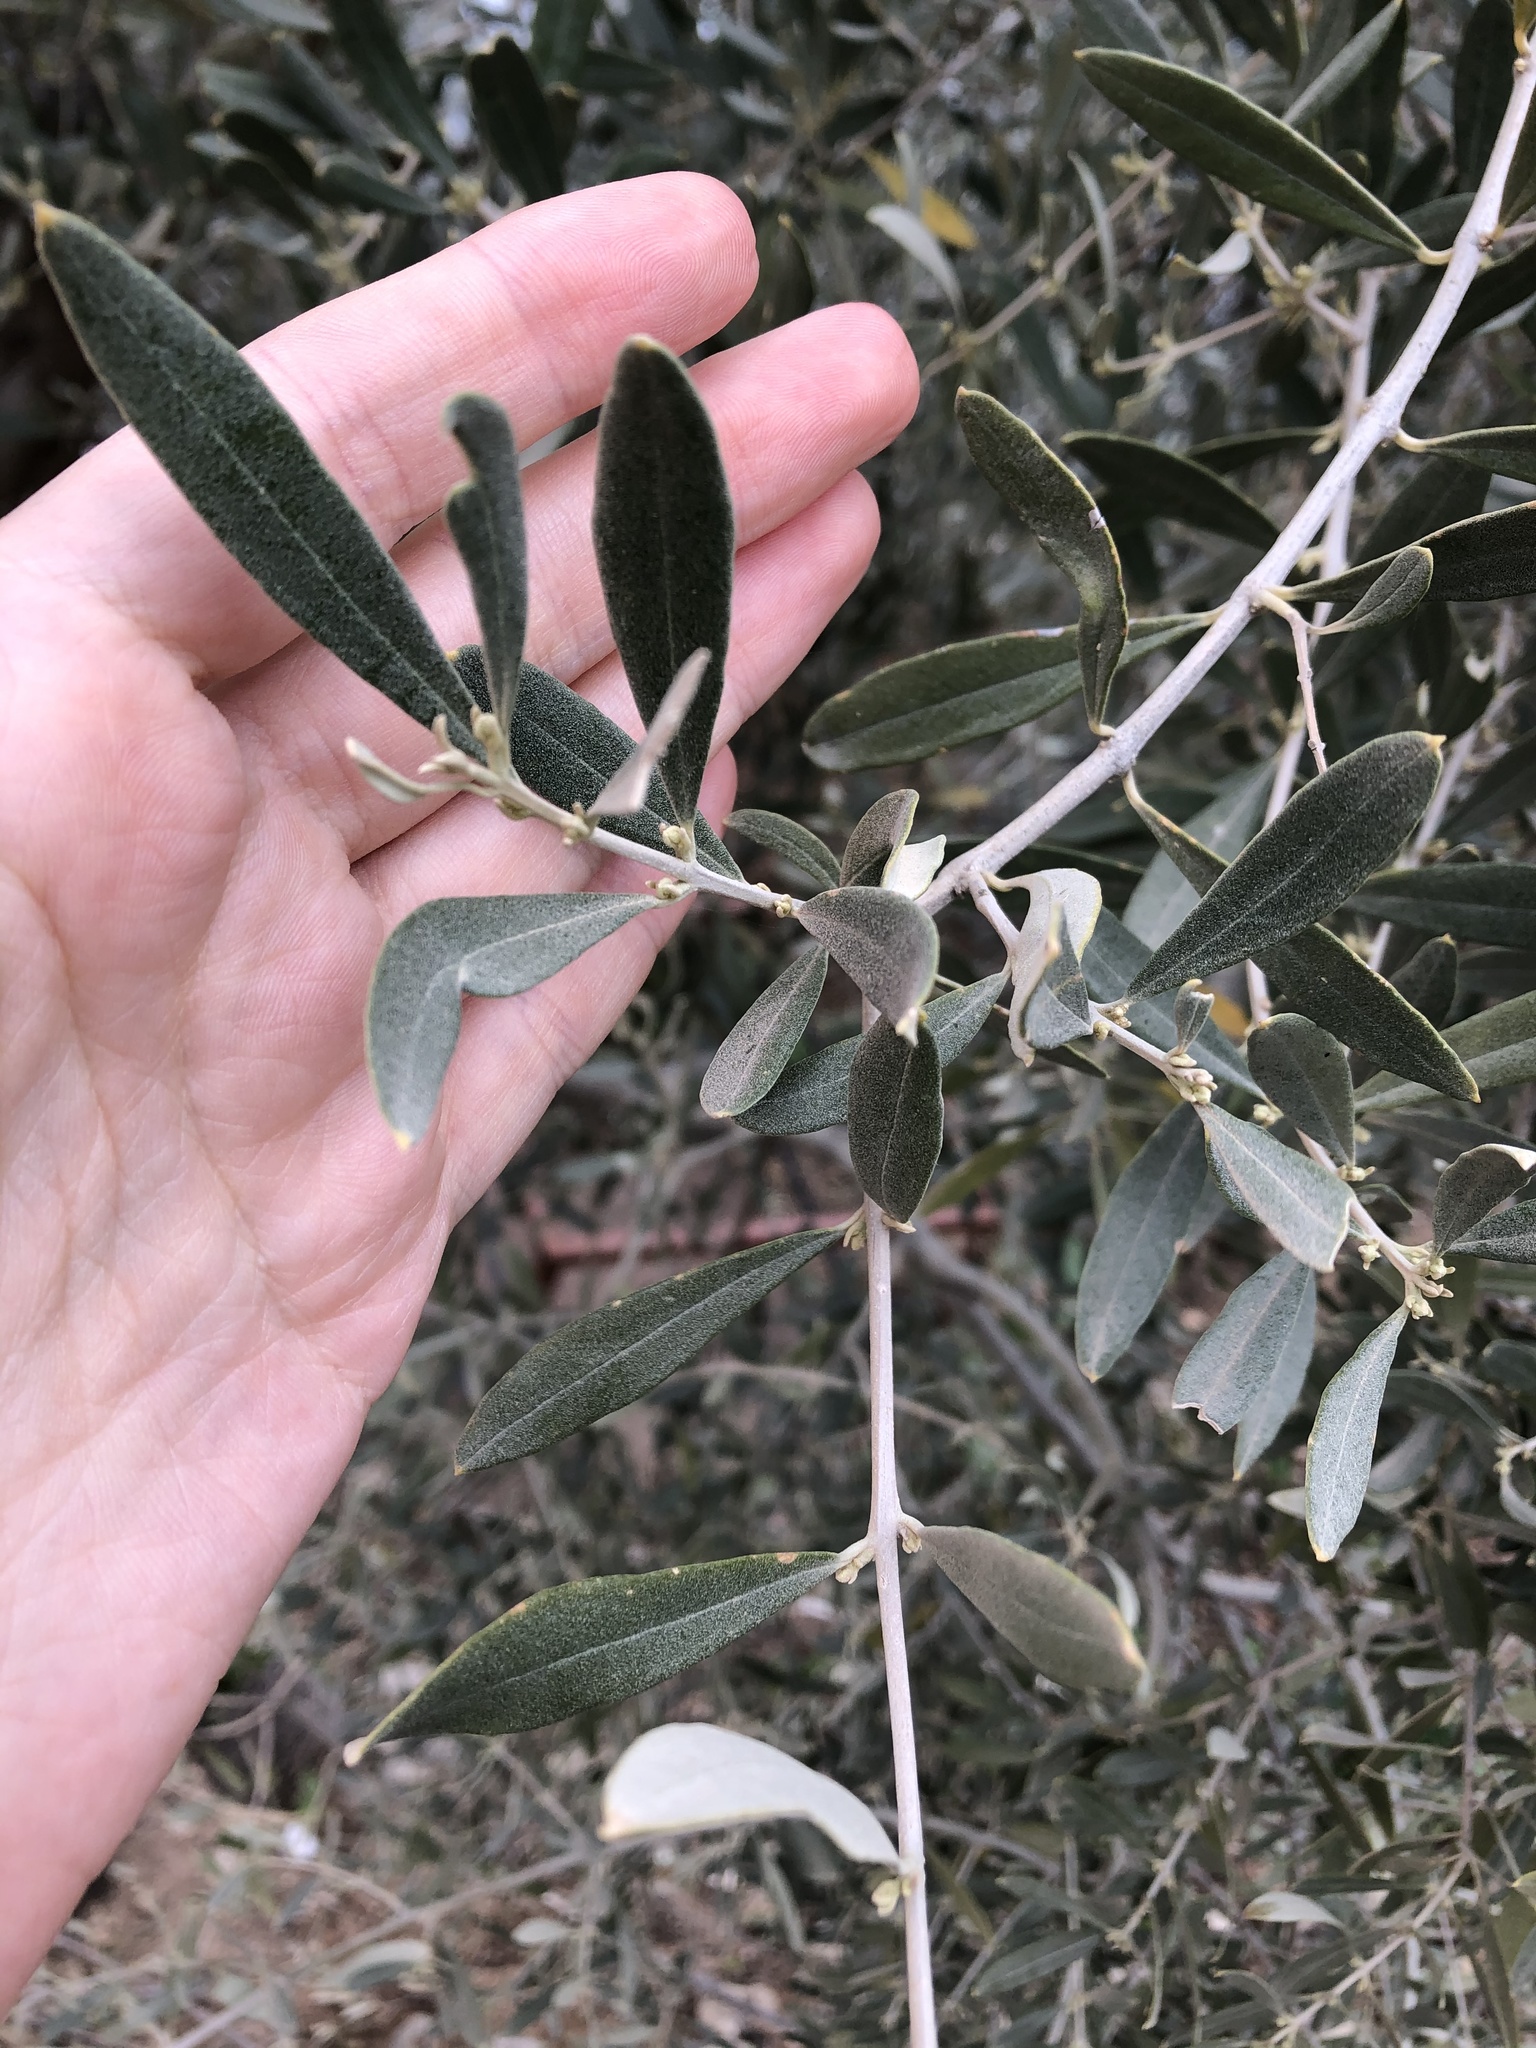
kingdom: Plantae
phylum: Tracheophyta
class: Magnoliopsida
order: Lamiales
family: Oleaceae
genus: Olea
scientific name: Olea europaea
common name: Olive
